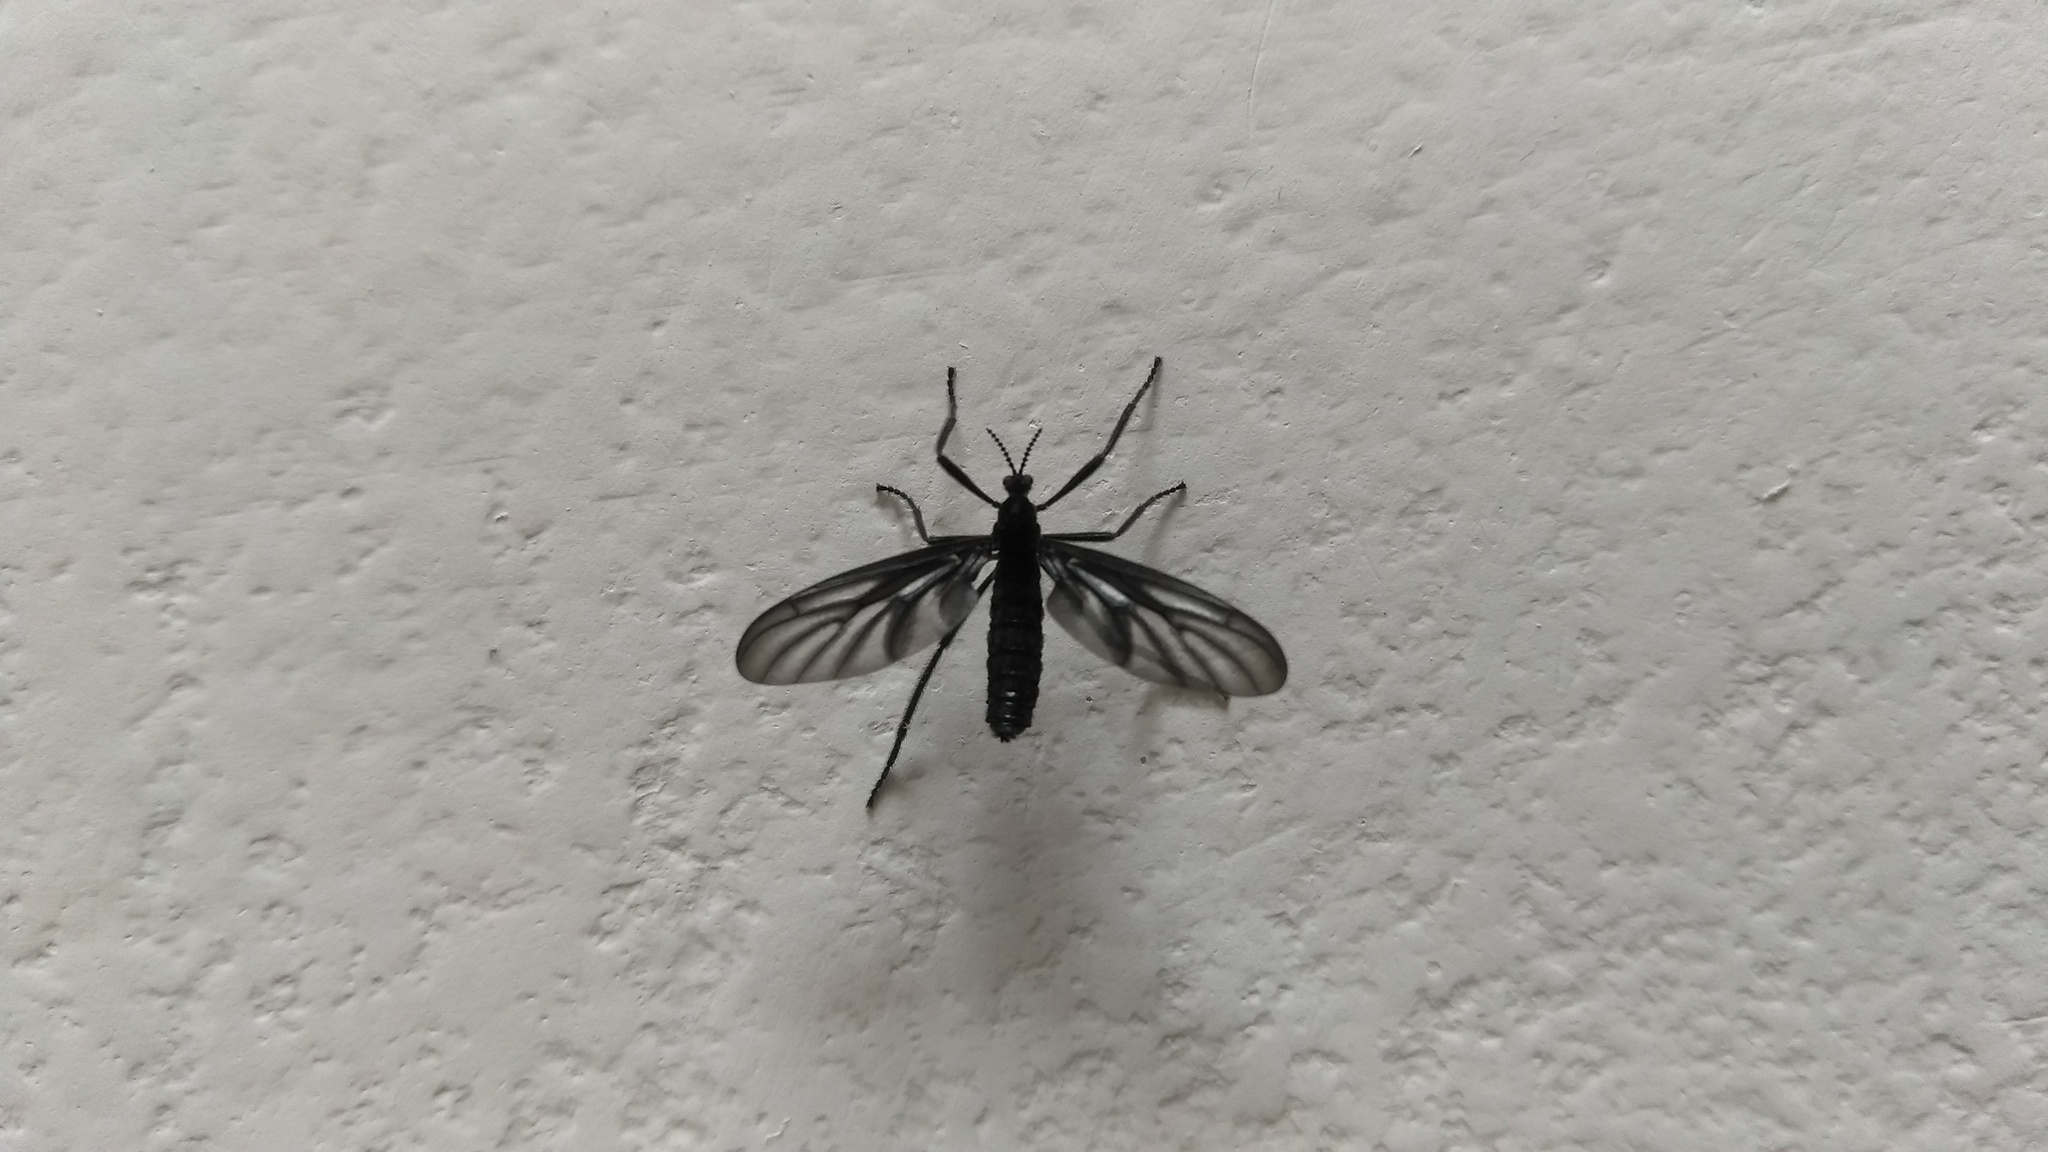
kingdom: Animalia
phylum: Arthropoda
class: Insecta
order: Diptera
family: Bibionidae
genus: Plecia
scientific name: Plecia plagiata
